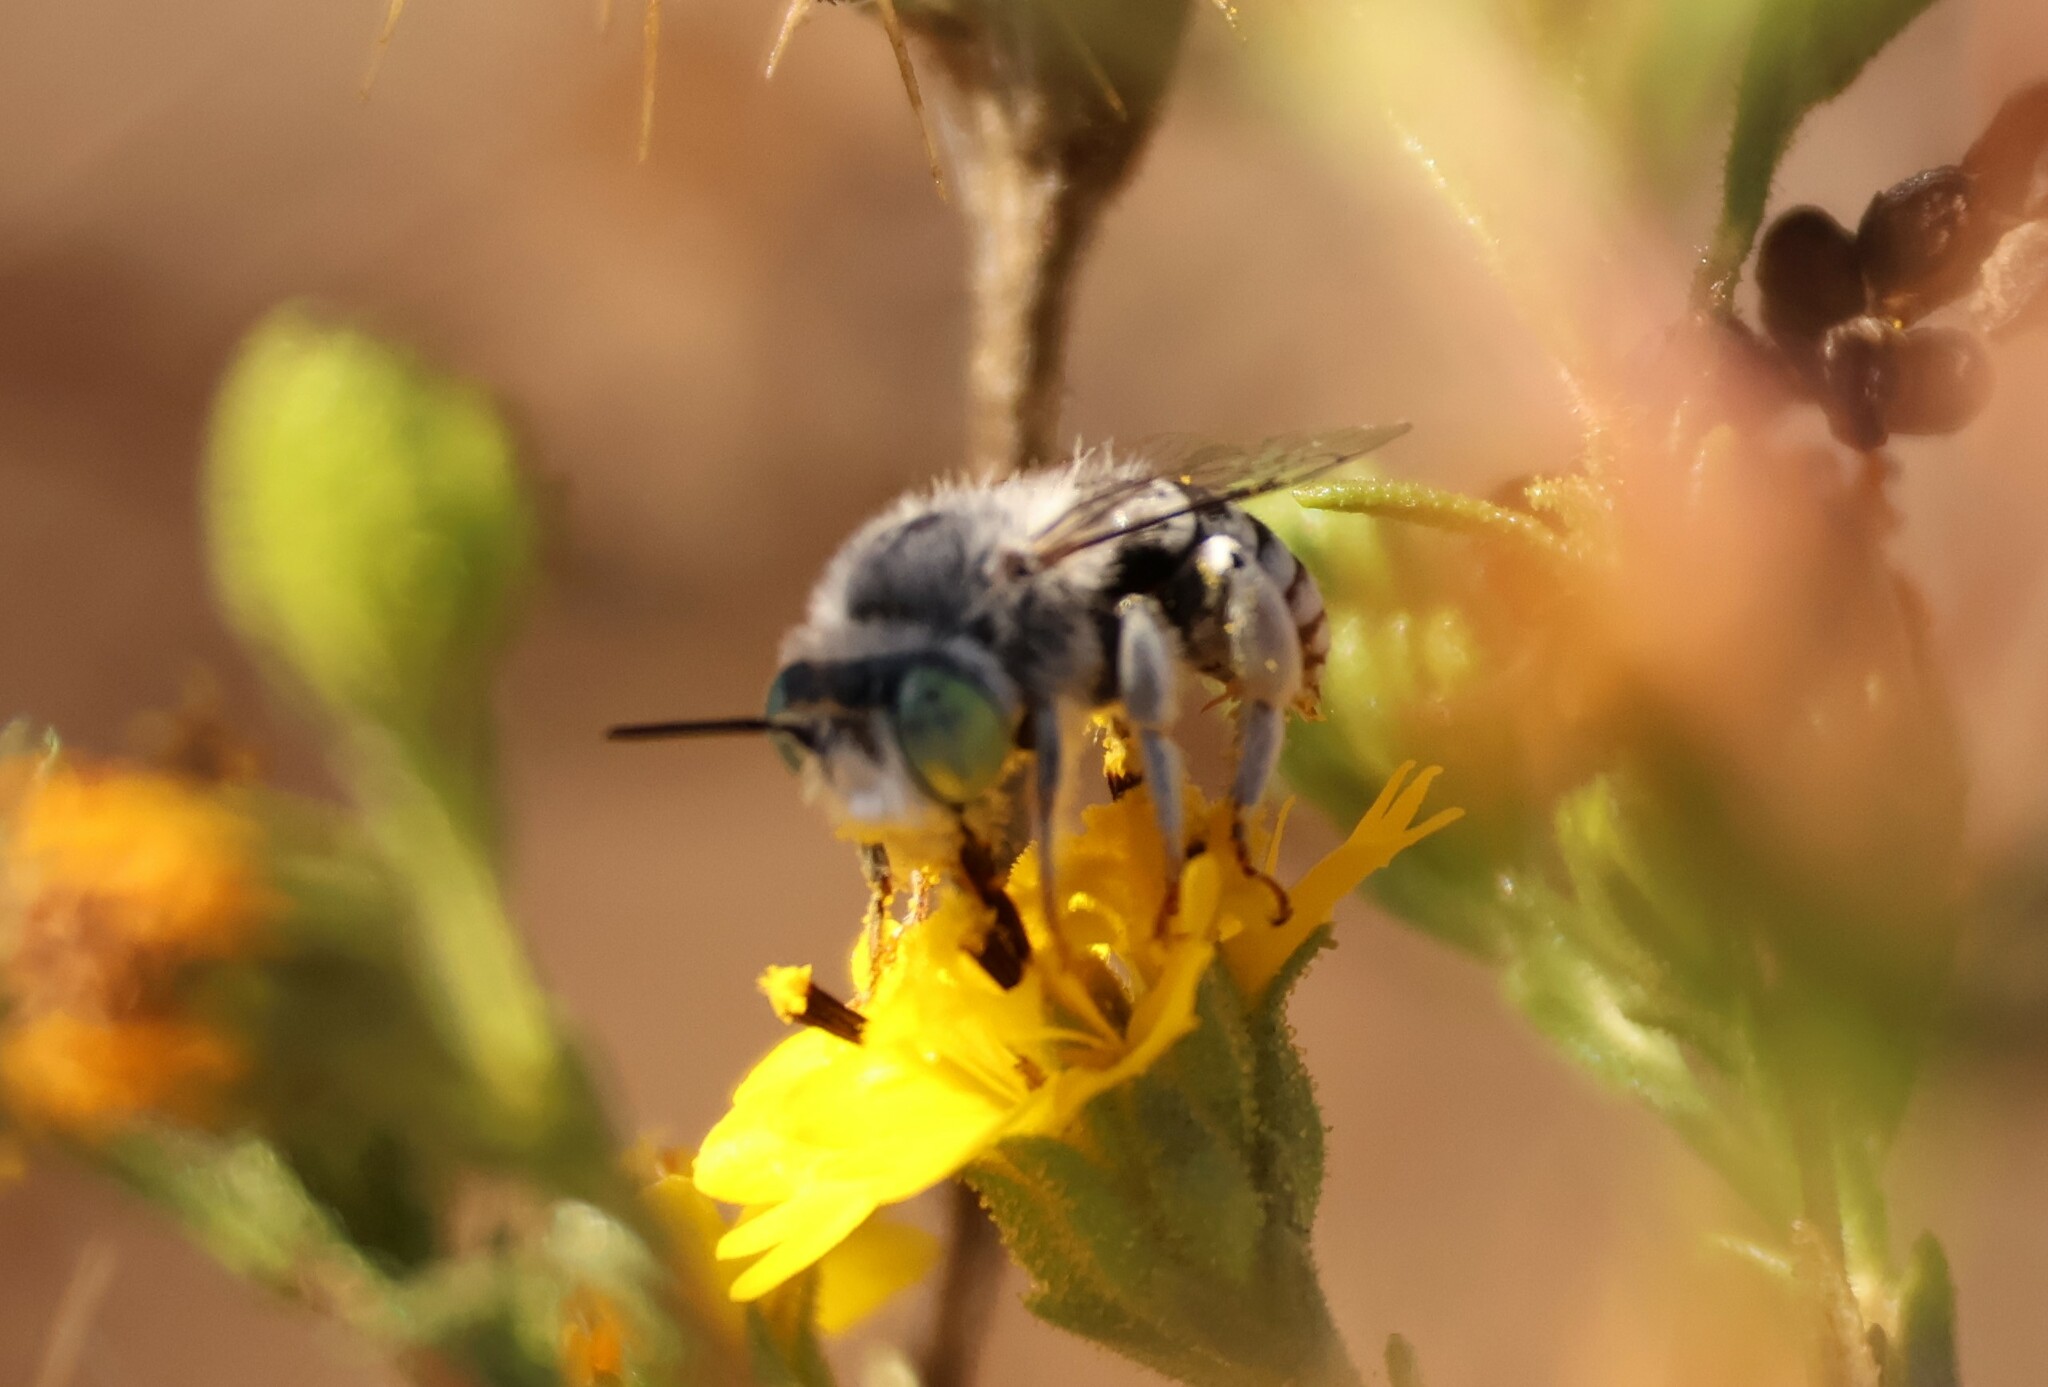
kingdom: Animalia
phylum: Arthropoda
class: Insecta
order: Hymenoptera
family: Apidae
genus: Anthophora
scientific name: Anthophora curta
